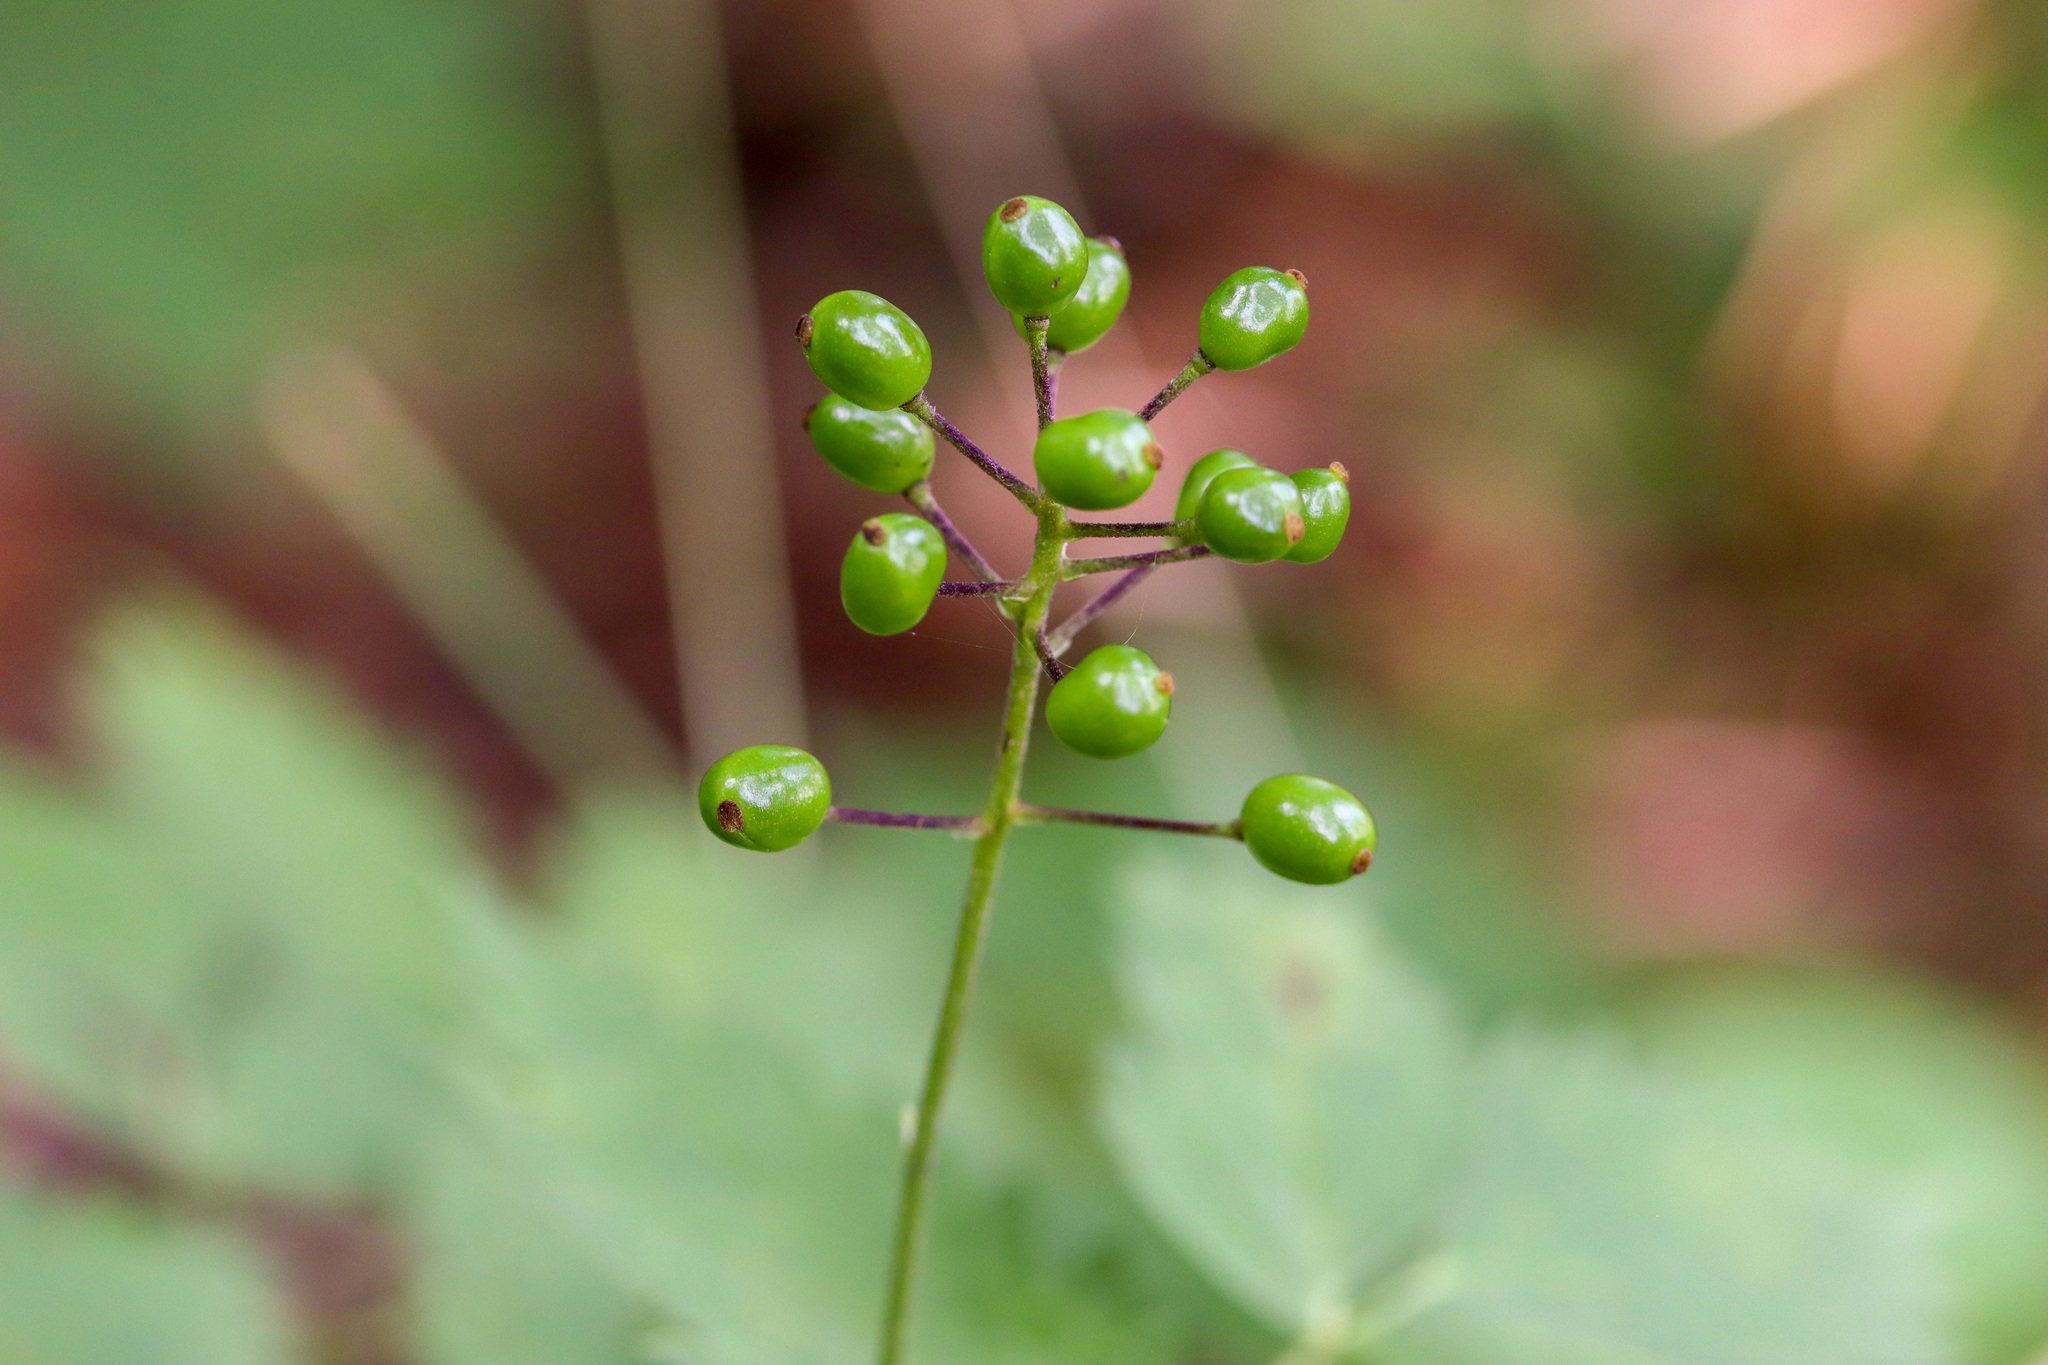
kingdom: Plantae
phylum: Tracheophyta
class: Magnoliopsida
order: Ranunculales
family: Ranunculaceae
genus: Actaea
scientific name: Actaea rubra
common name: Red baneberry
